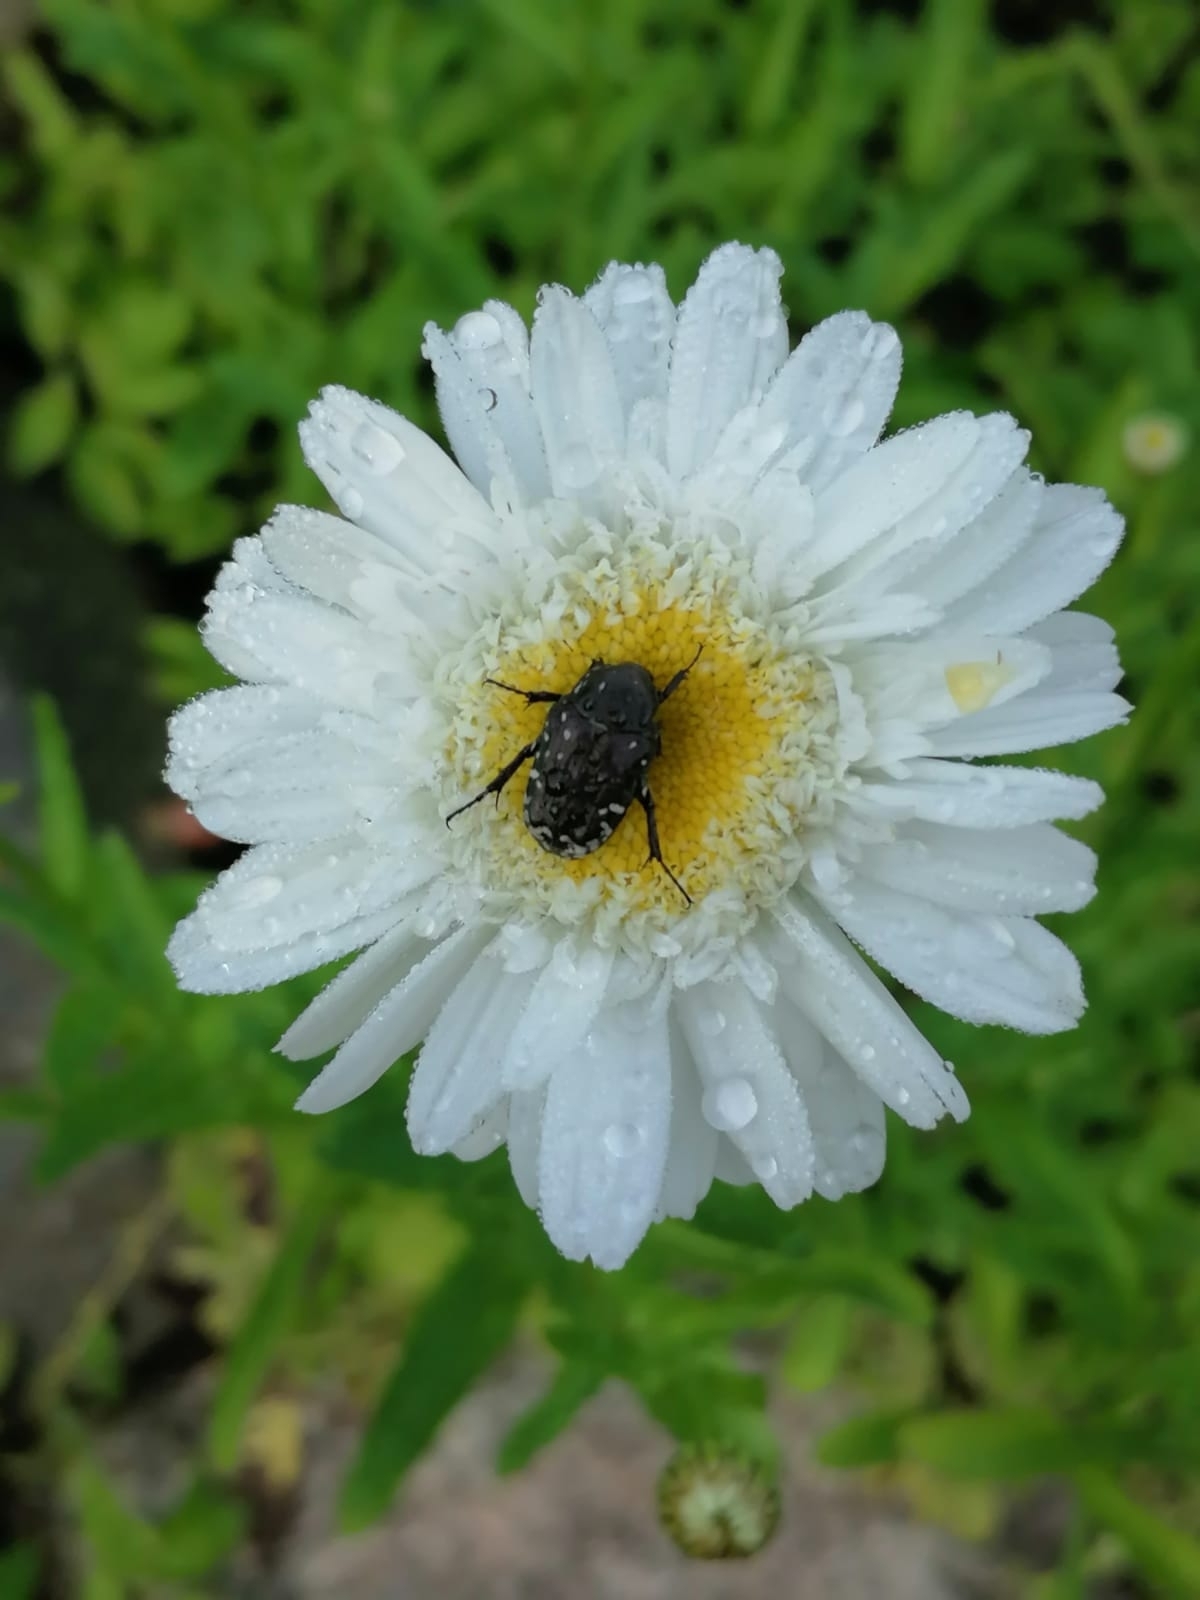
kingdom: Animalia
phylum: Arthropoda
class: Insecta
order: Coleoptera
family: Scarabaeidae
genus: Oxythyrea
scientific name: Oxythyrea funesta
